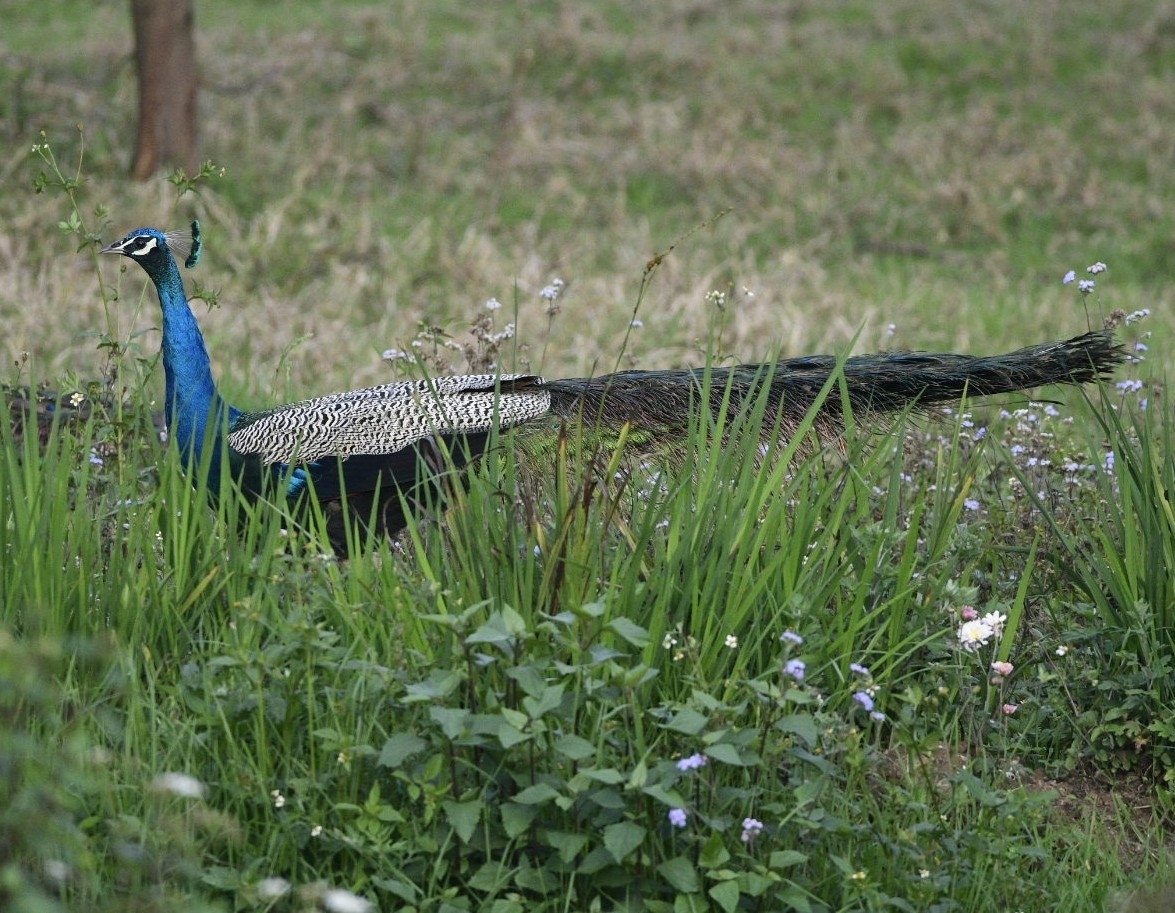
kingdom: Animalia
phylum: Chordata
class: Aves
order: Galliformes
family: Phasianidae
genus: Pavo
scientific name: Pavo cristatus
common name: Indian peafowl
